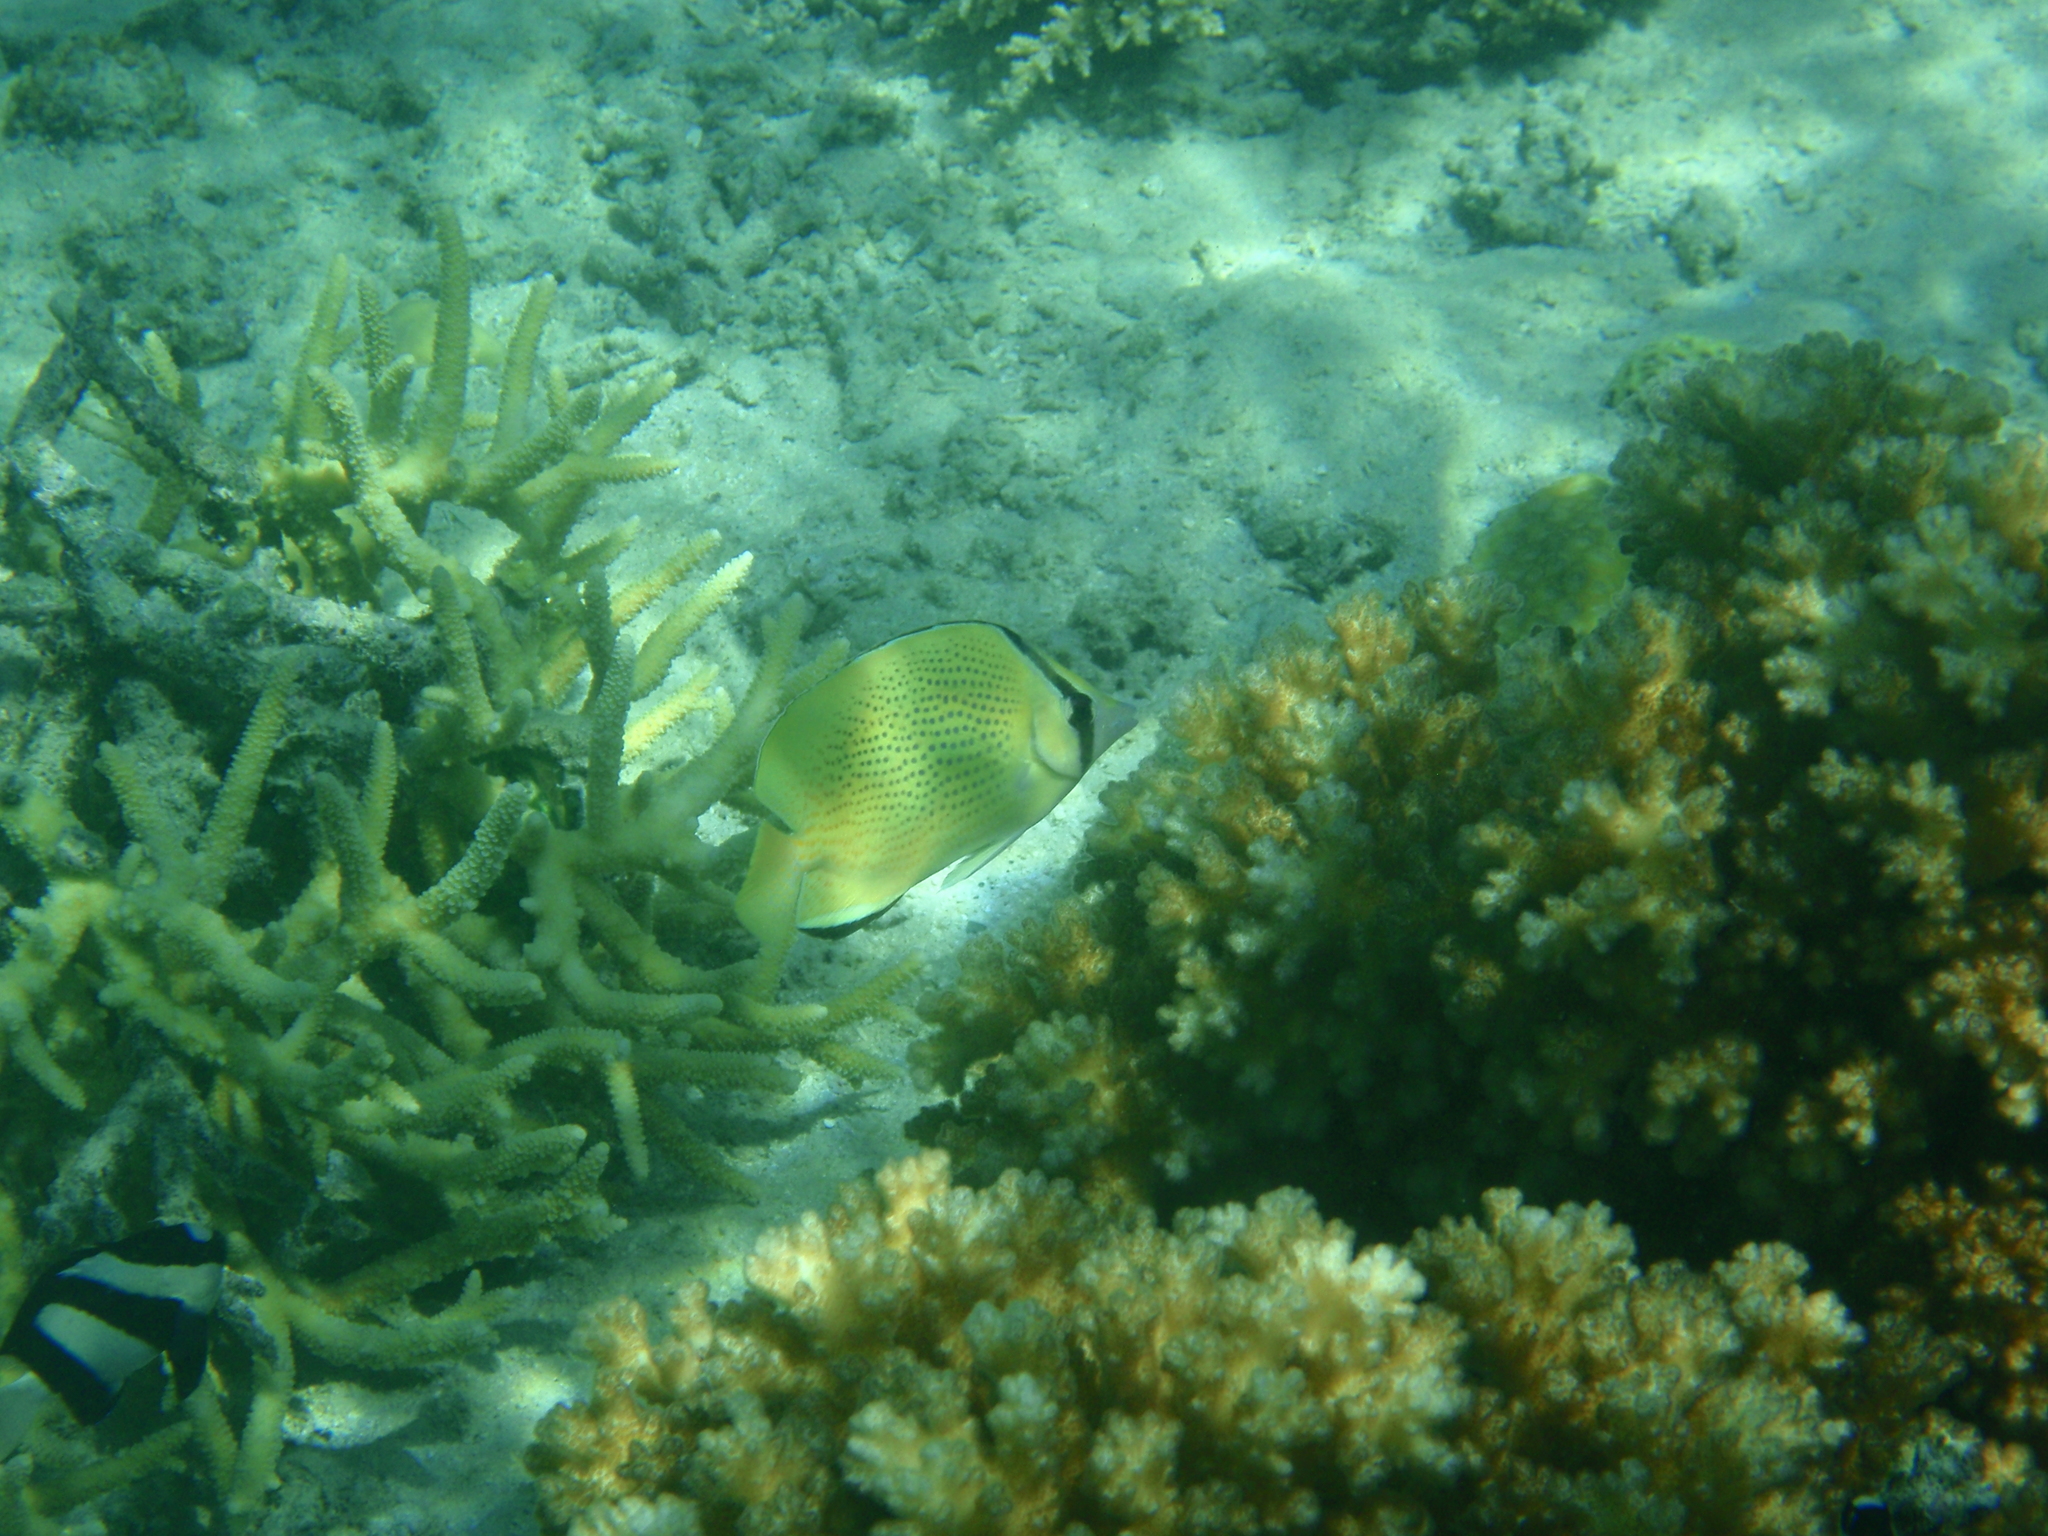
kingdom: Animalia
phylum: Chordata
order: Perciformes
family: Chaetodontidae
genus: Chaetodon
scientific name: Chaetodon citrinellus
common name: Speckled butterflyfish
